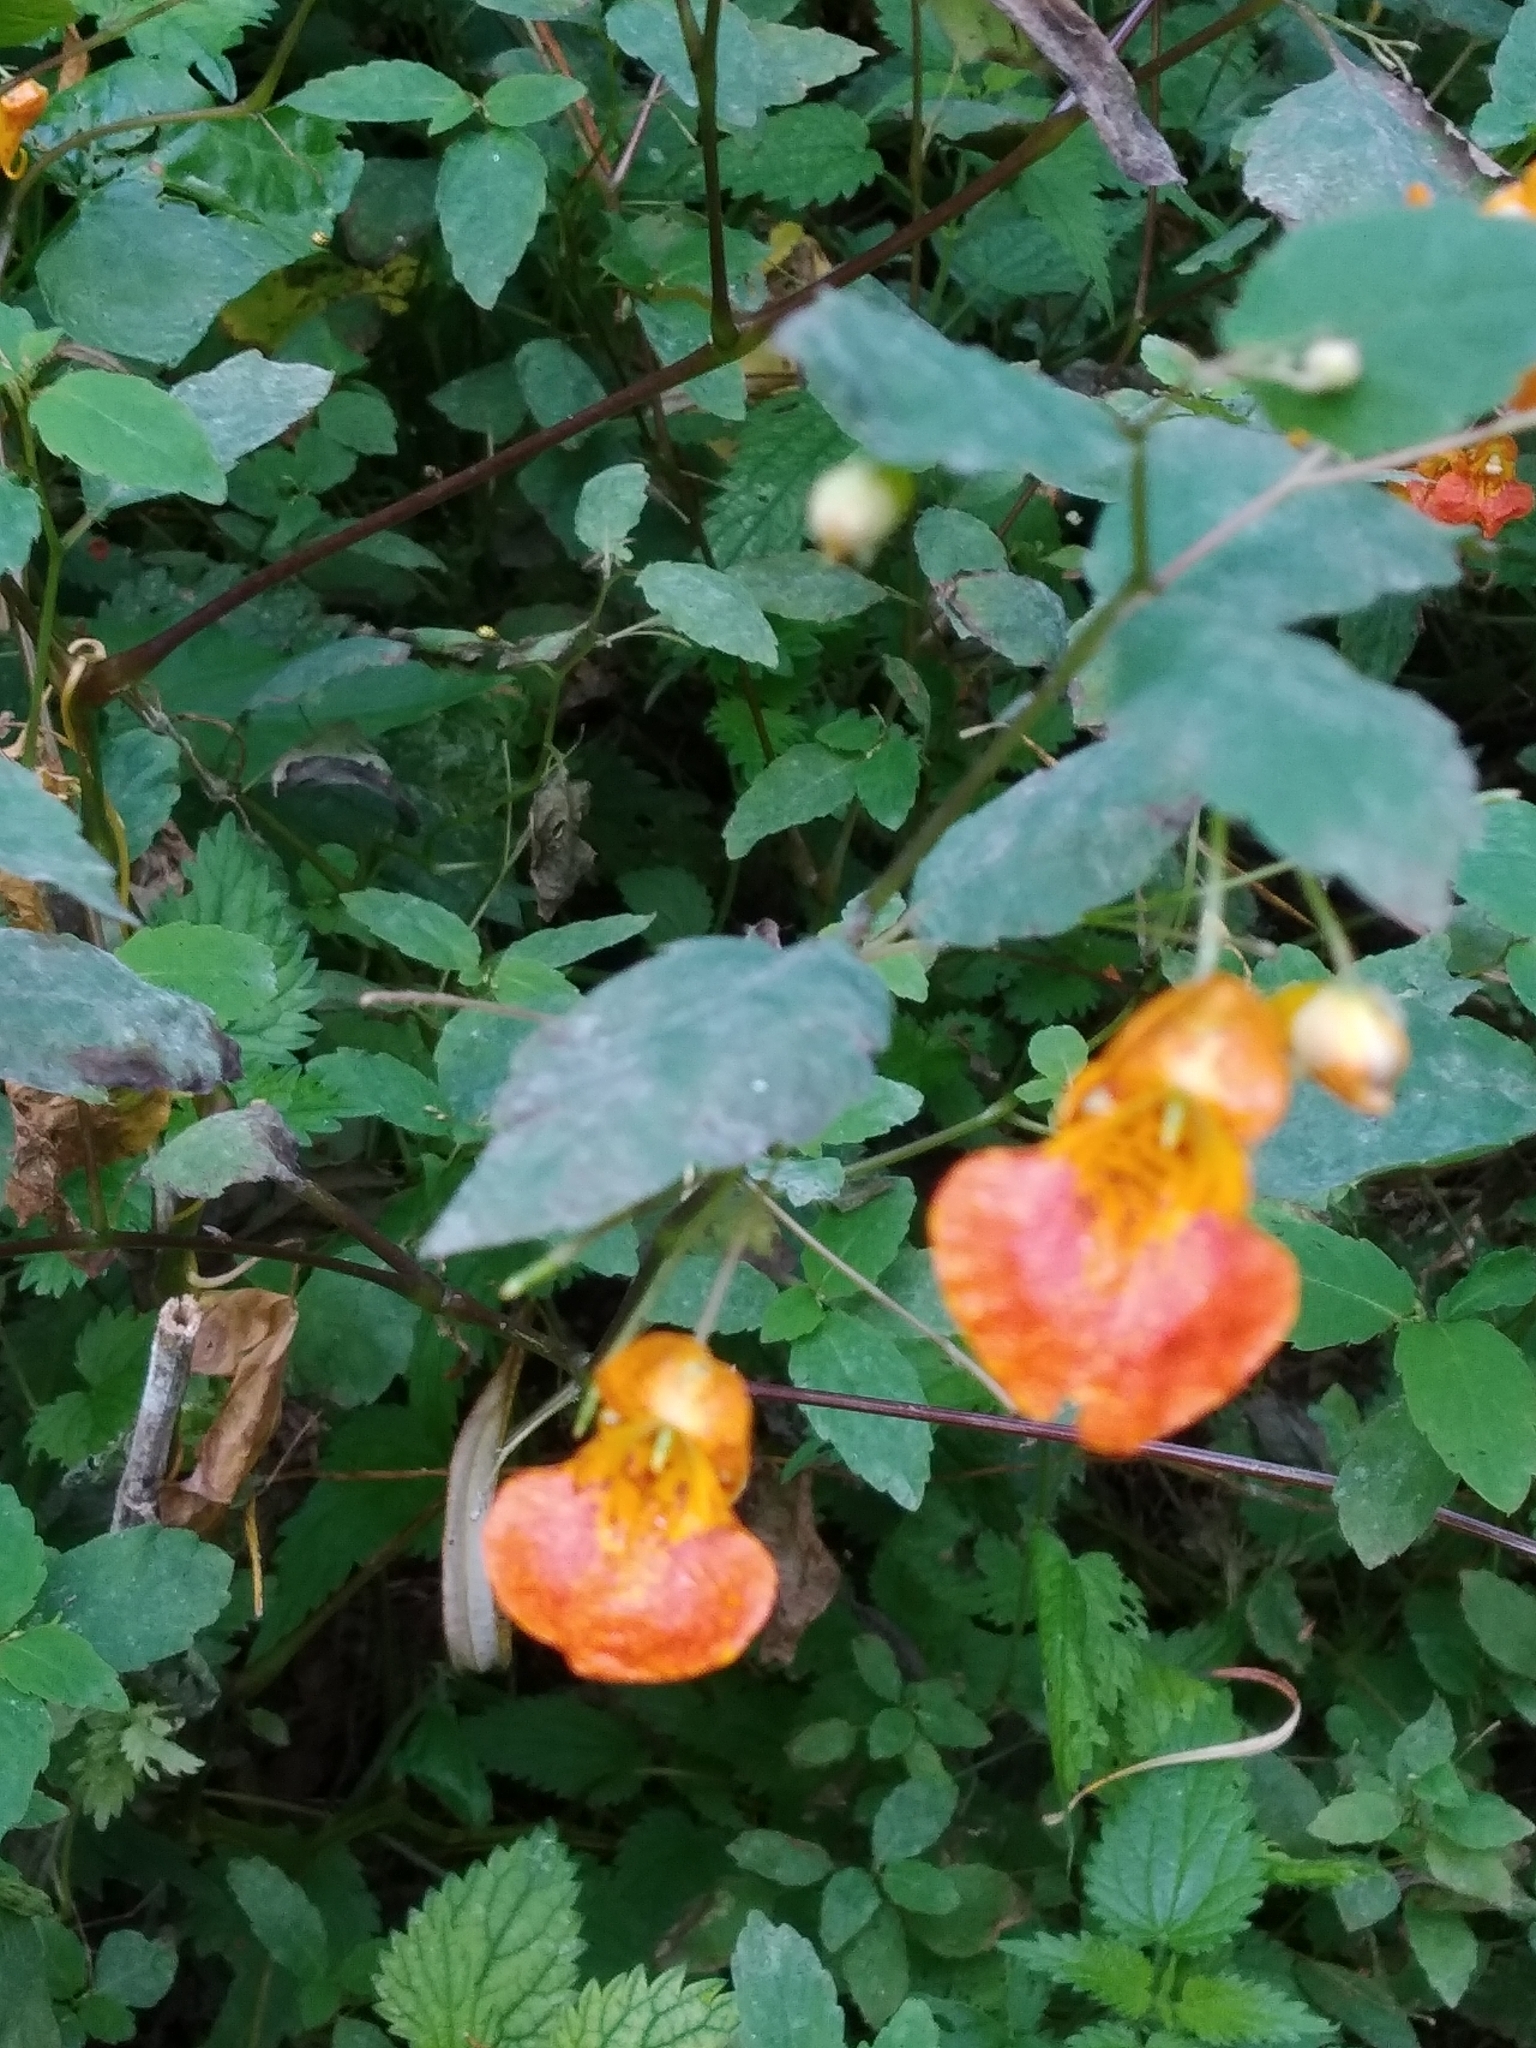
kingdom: Plantae
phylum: Tracheophyta
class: Magnoliopsida
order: Ericales
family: Balsaminaceae
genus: Impatiens
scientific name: Impatiens capensis
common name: Orange balsam
